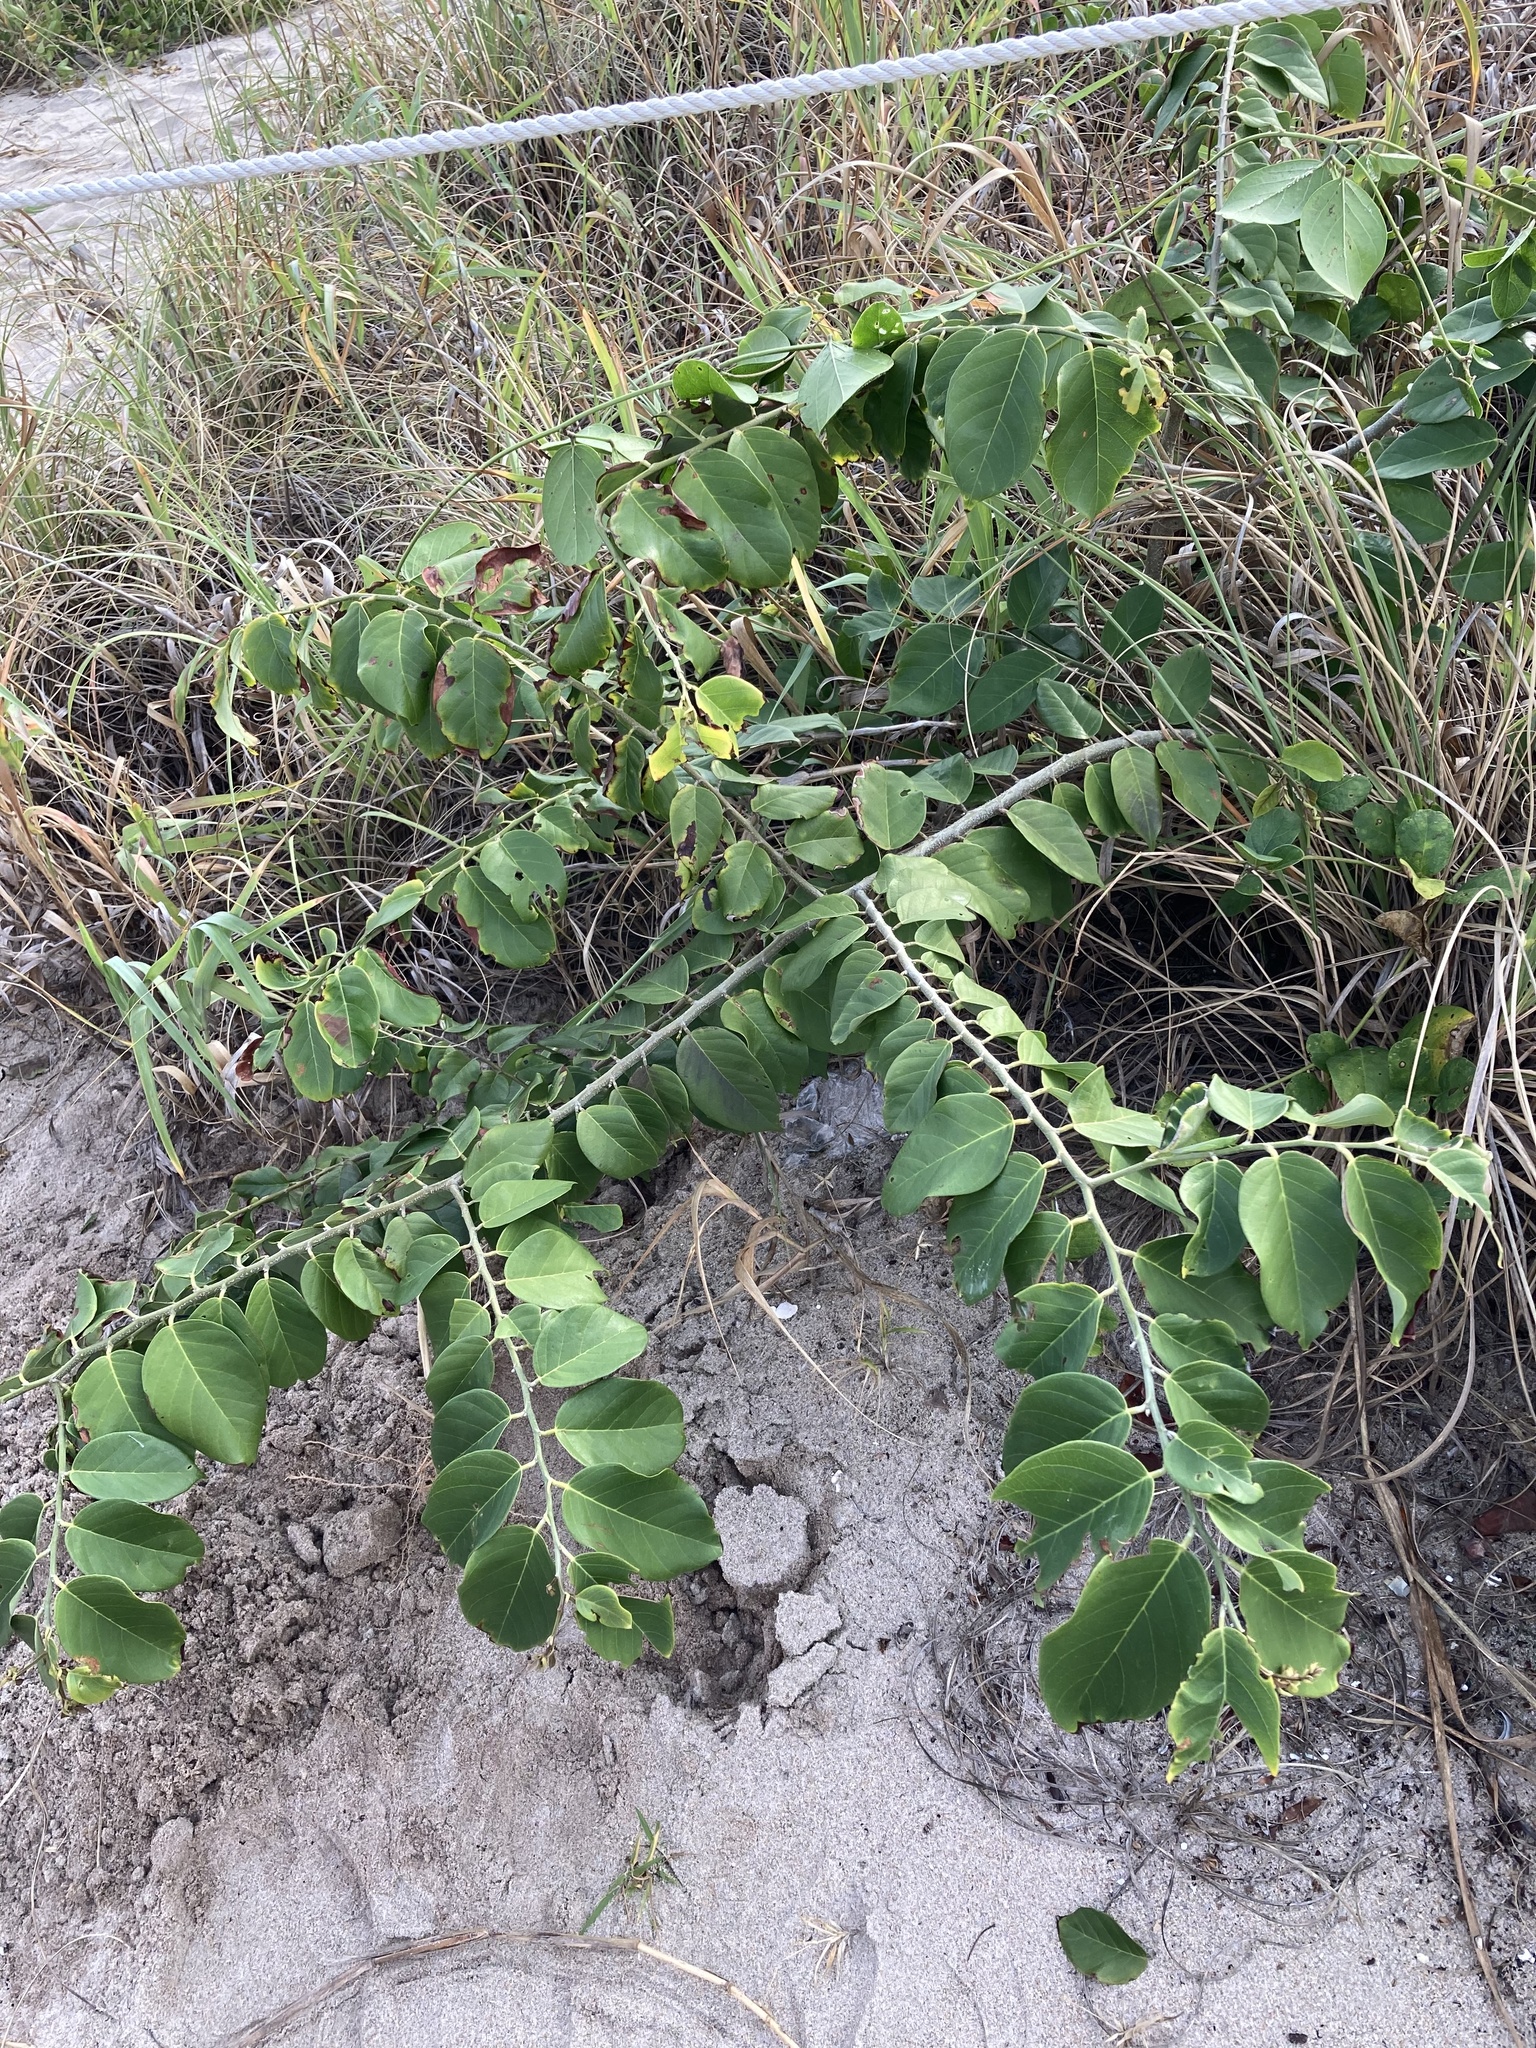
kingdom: Plantae
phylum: Tracheophyta
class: Magnoliopsida
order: Fabales
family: Fabaceae
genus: Dalbergia
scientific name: Dalbergia ecastaphyllum
